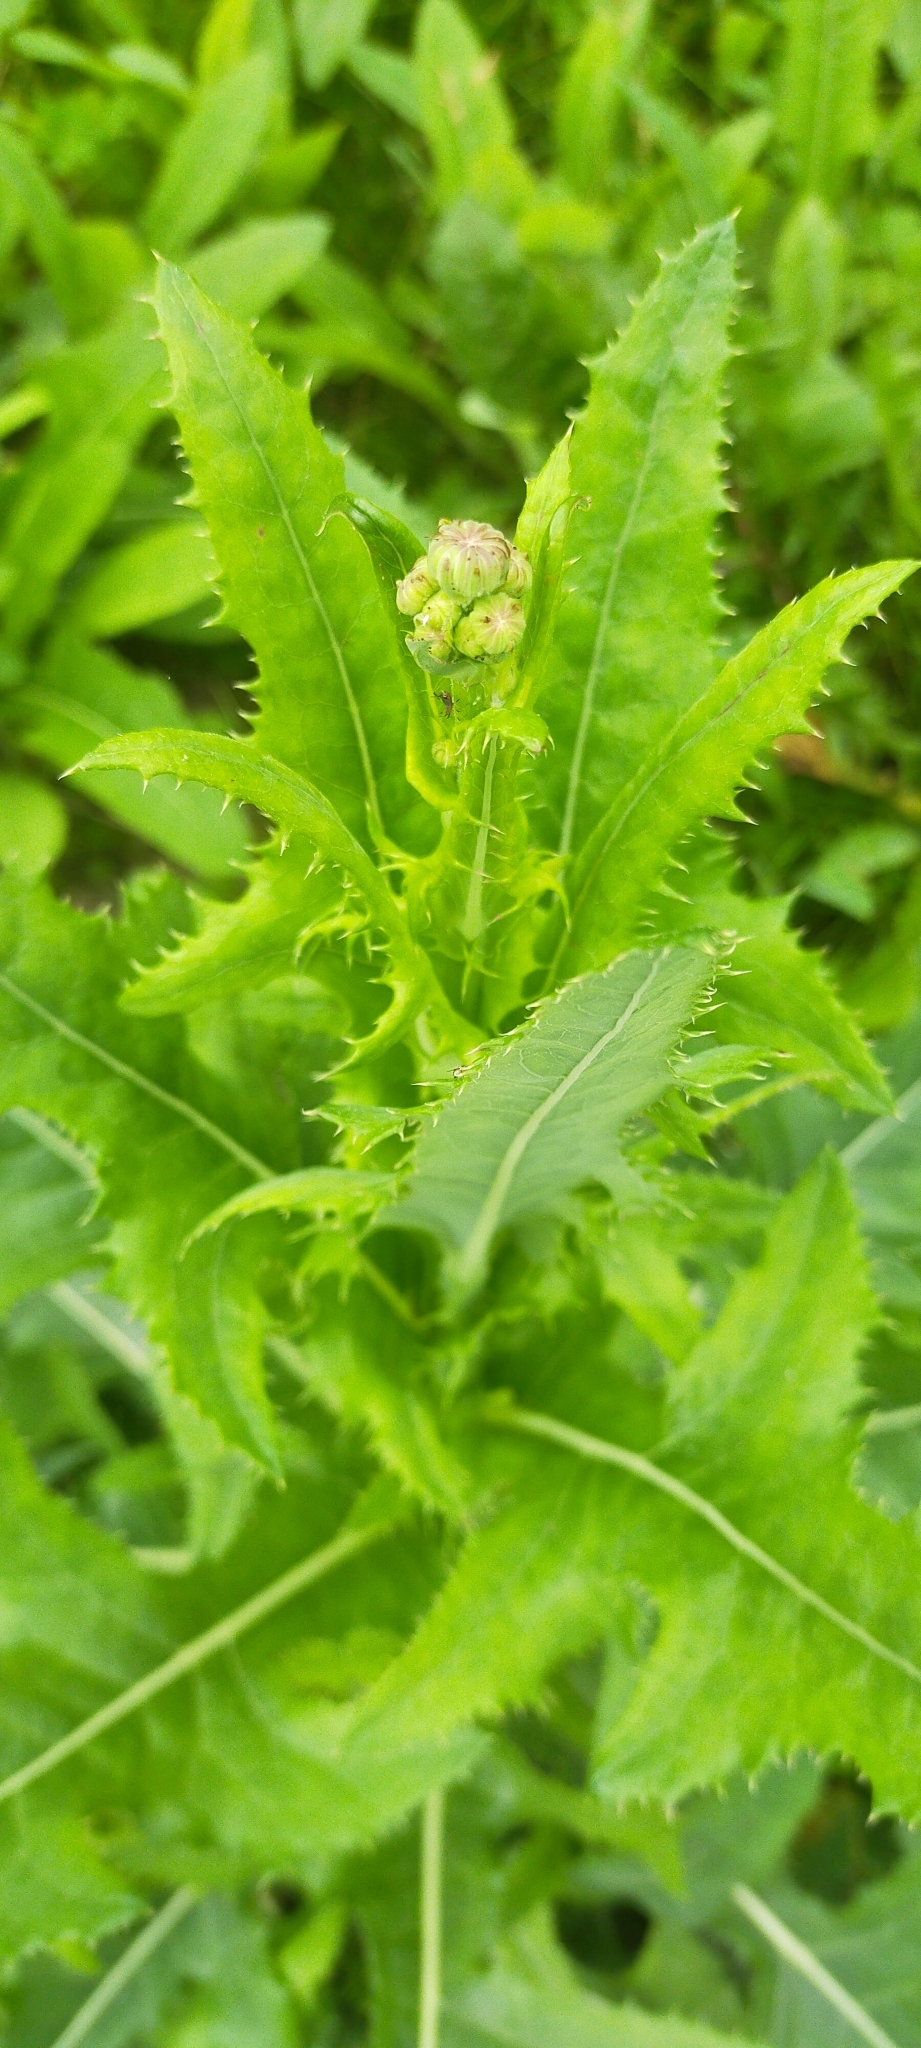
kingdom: Plantae
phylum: Tracheophyta
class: Magnoliopsida
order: Asterales
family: Asteraceae
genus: Sonchus
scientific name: Sonchus arvensis
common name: Perennial sow-thistle
